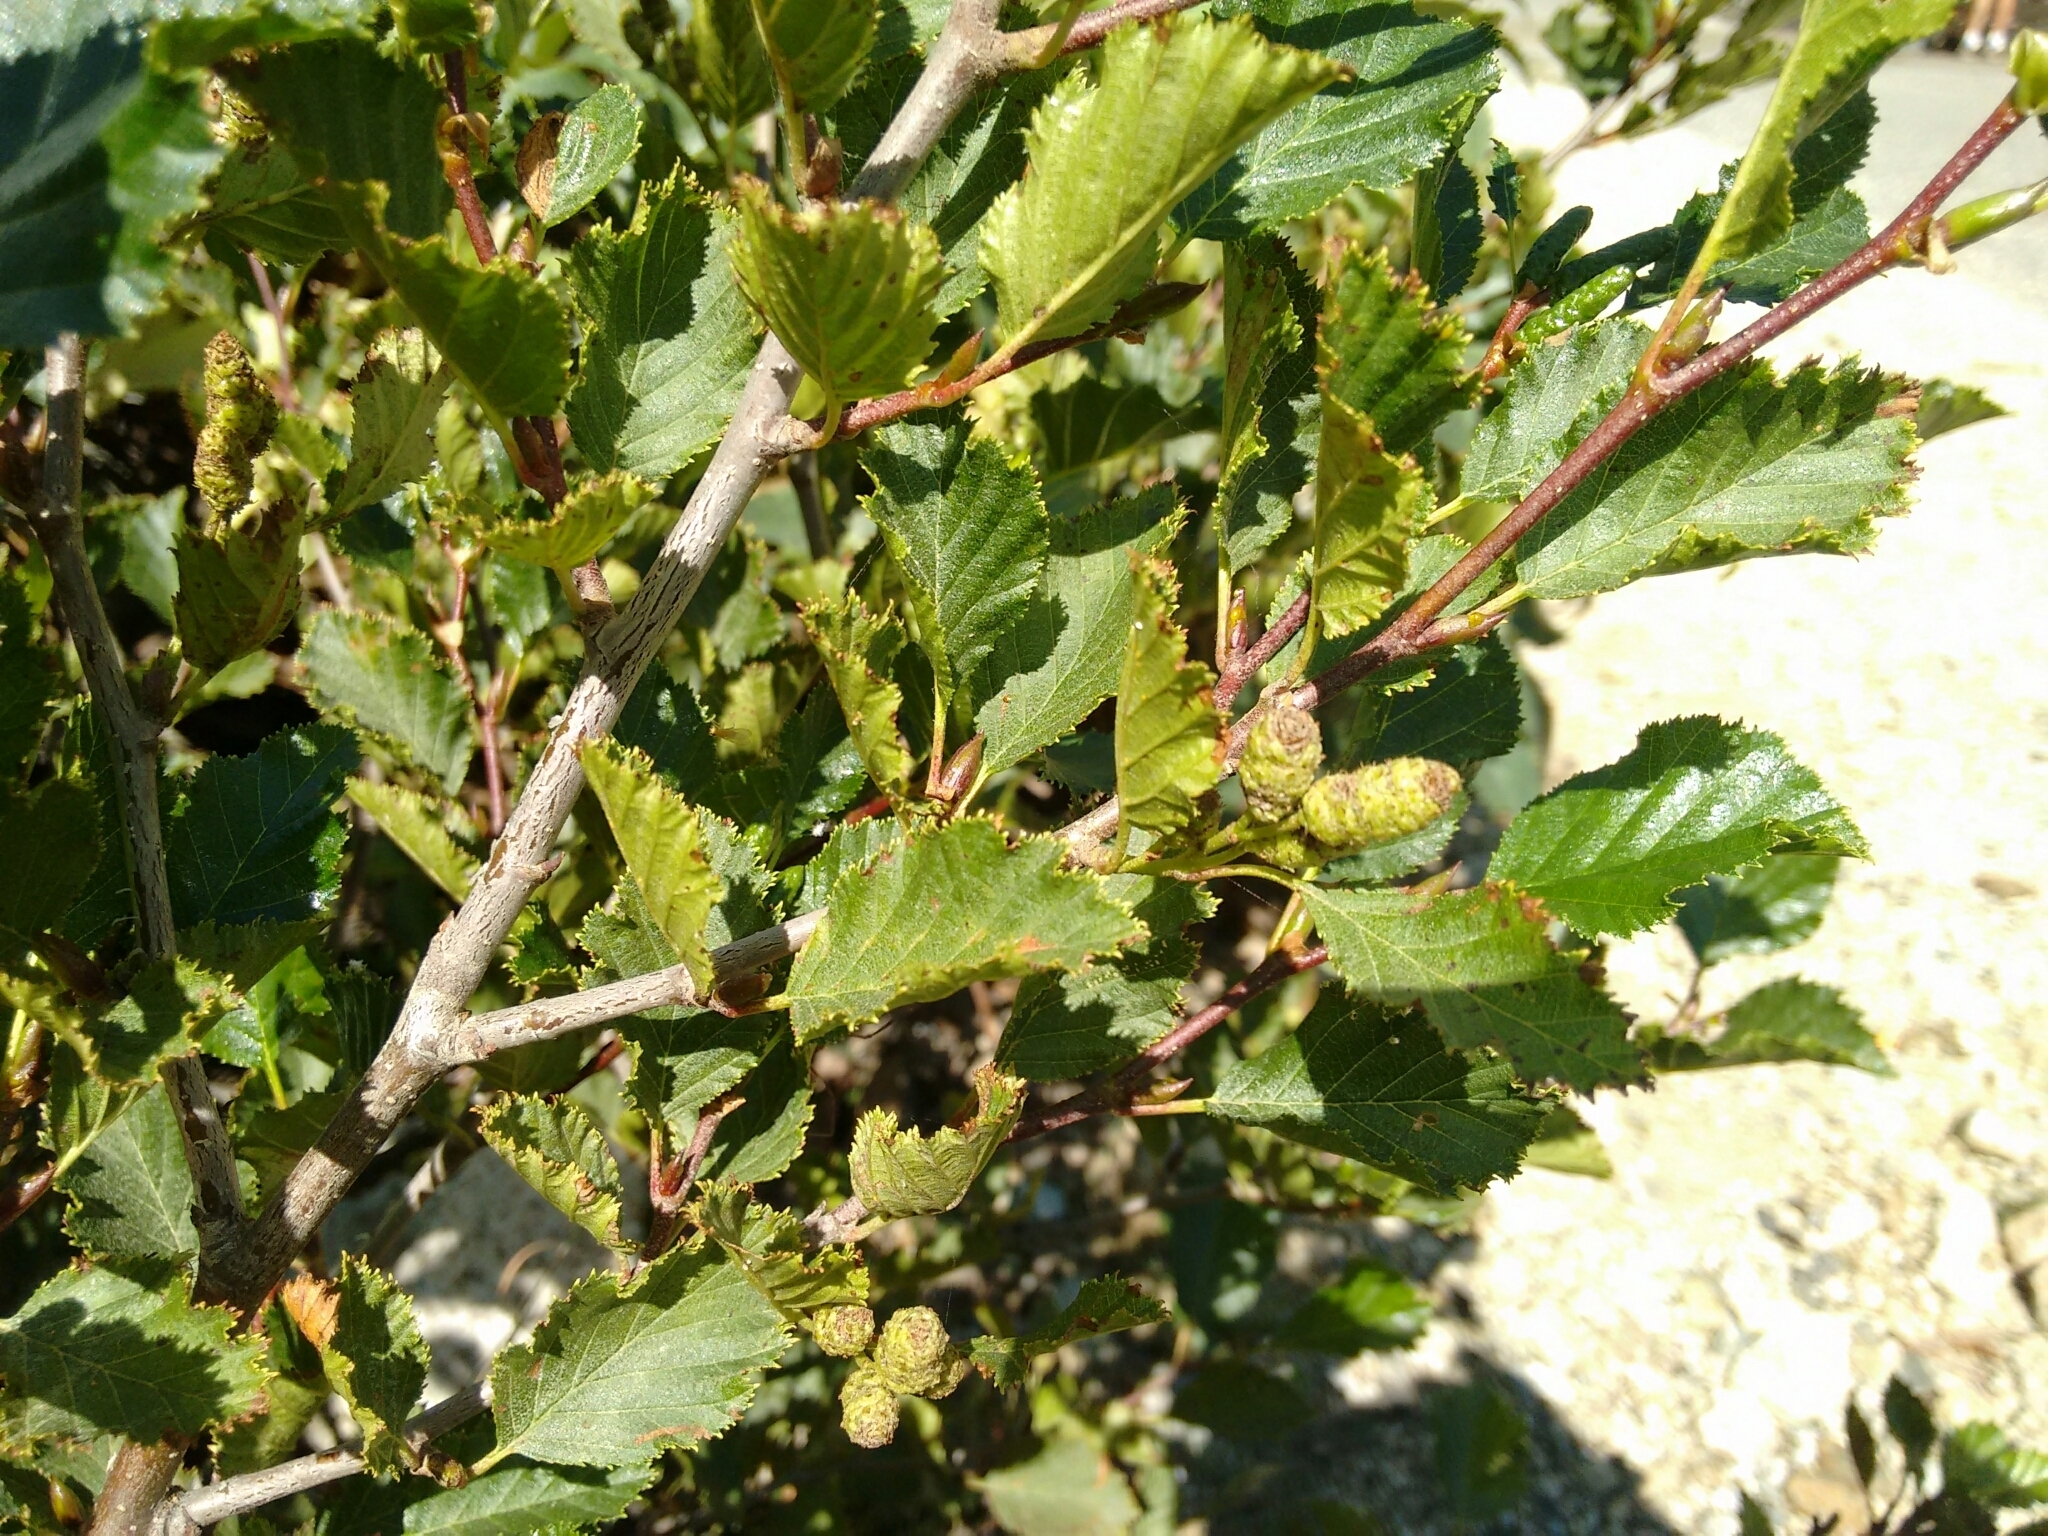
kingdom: Plantae
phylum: Tracheophyta
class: Magnoliopsida
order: Fagales
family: Betulaceae
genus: Alnus
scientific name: Alnus alnobetula
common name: Green alder
